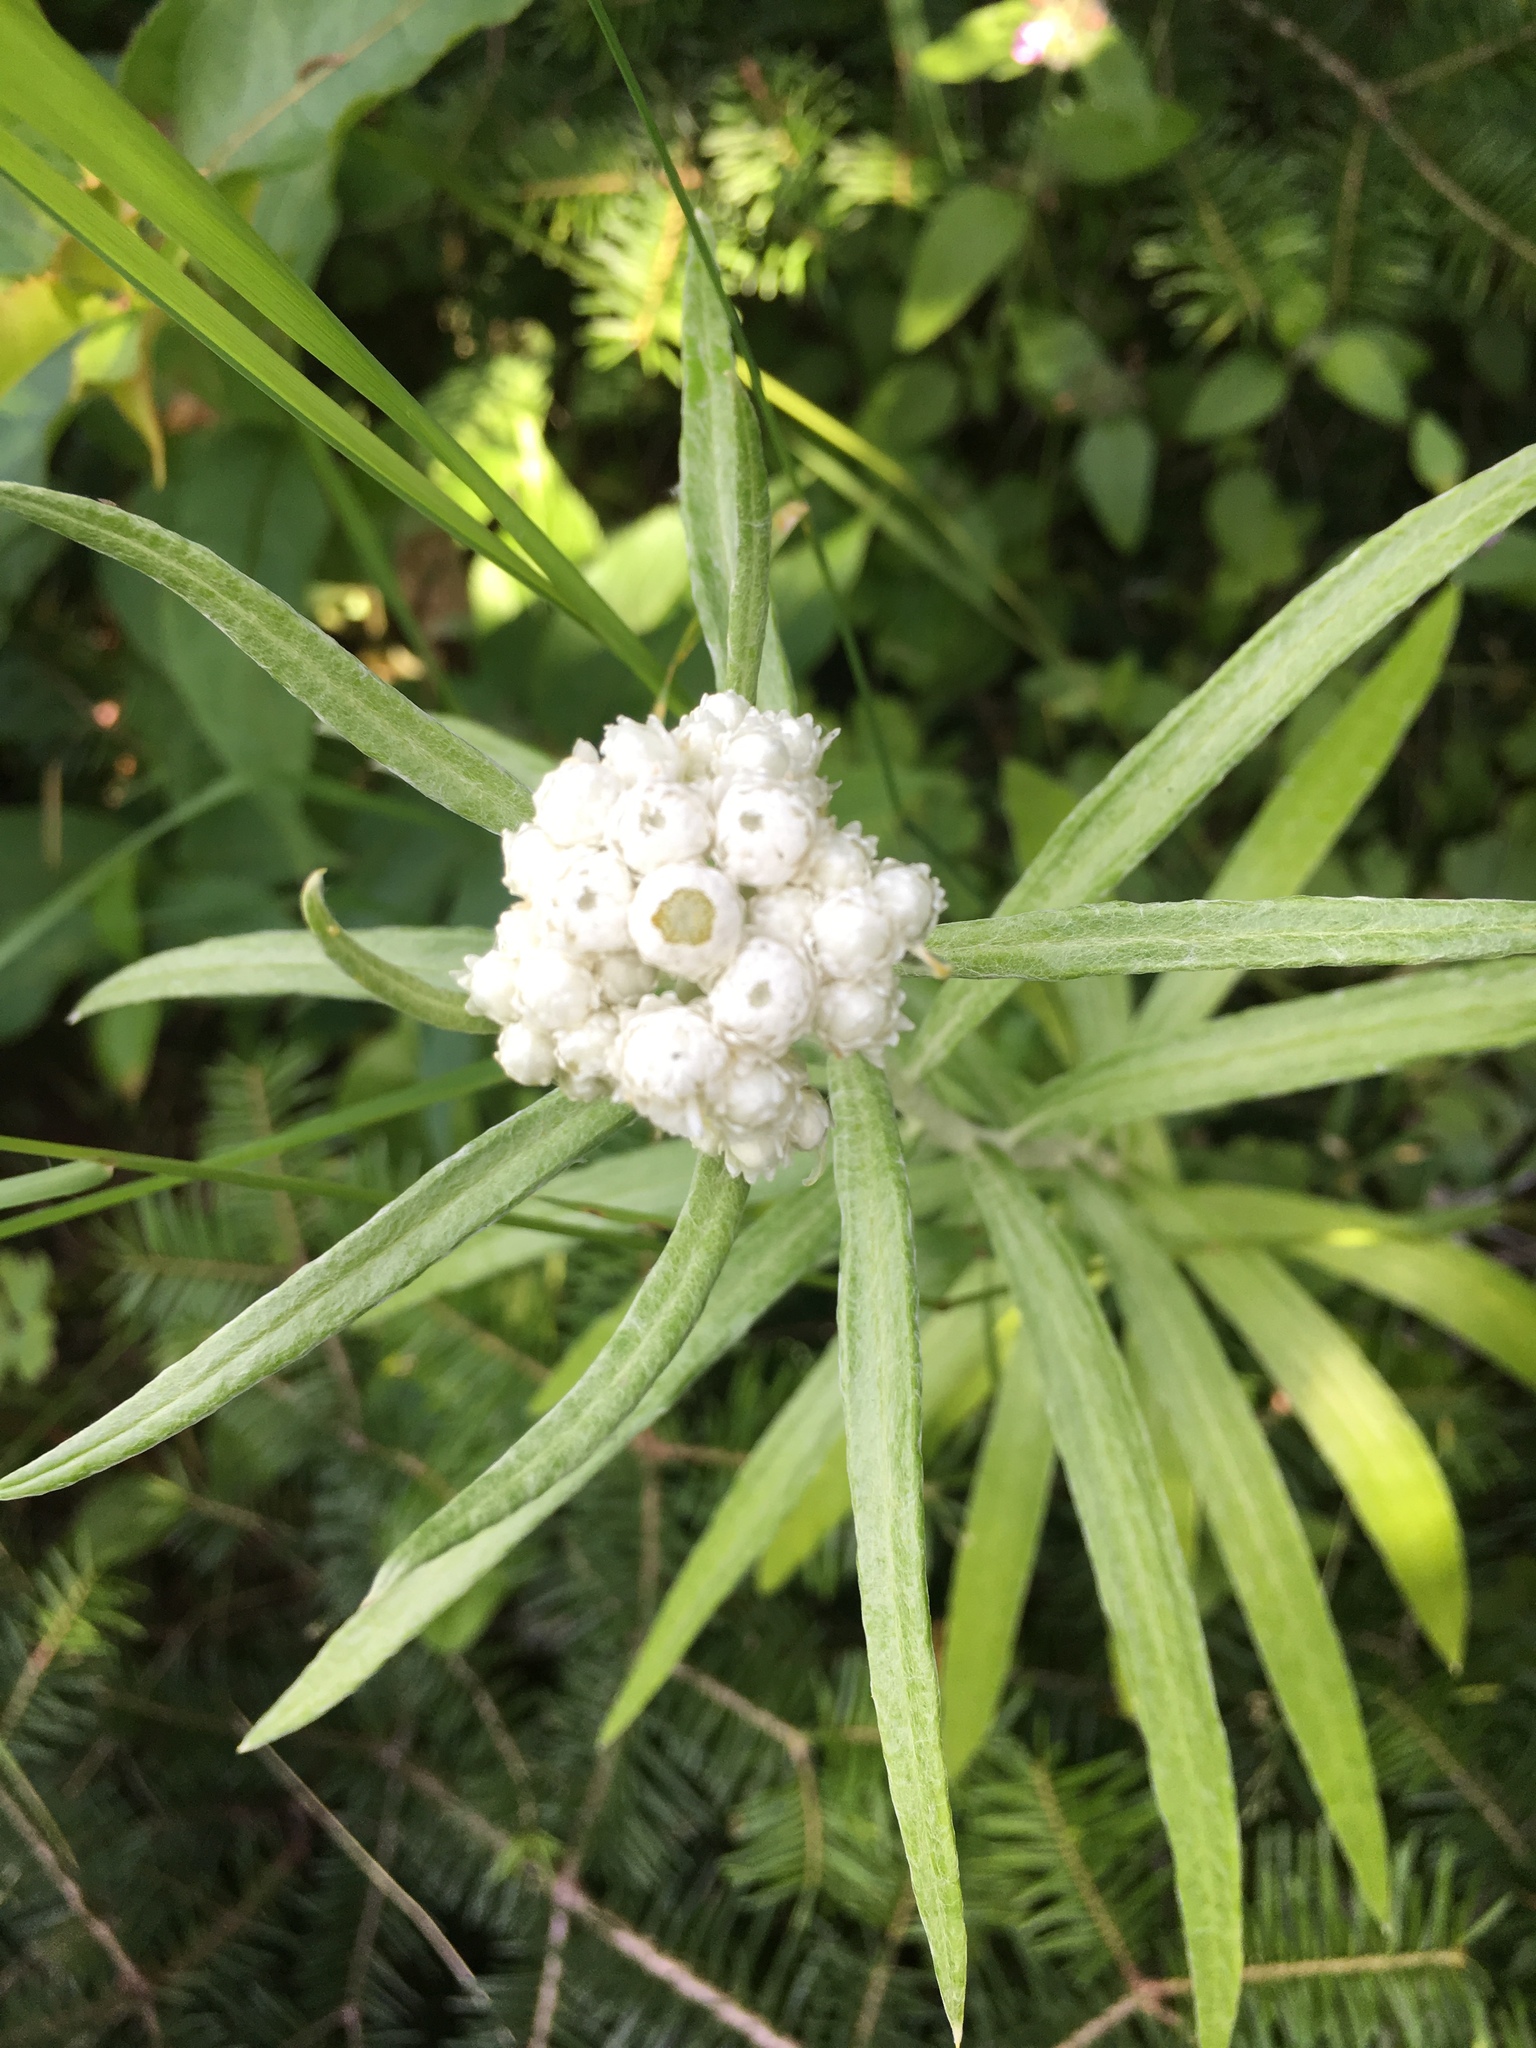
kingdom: Plantae
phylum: Tracheophyta
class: Magnoliopsida
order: Asterales
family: Asteraceae
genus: Anaphalis
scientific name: Anaphalis margaritacea
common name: Pearly everlasting
